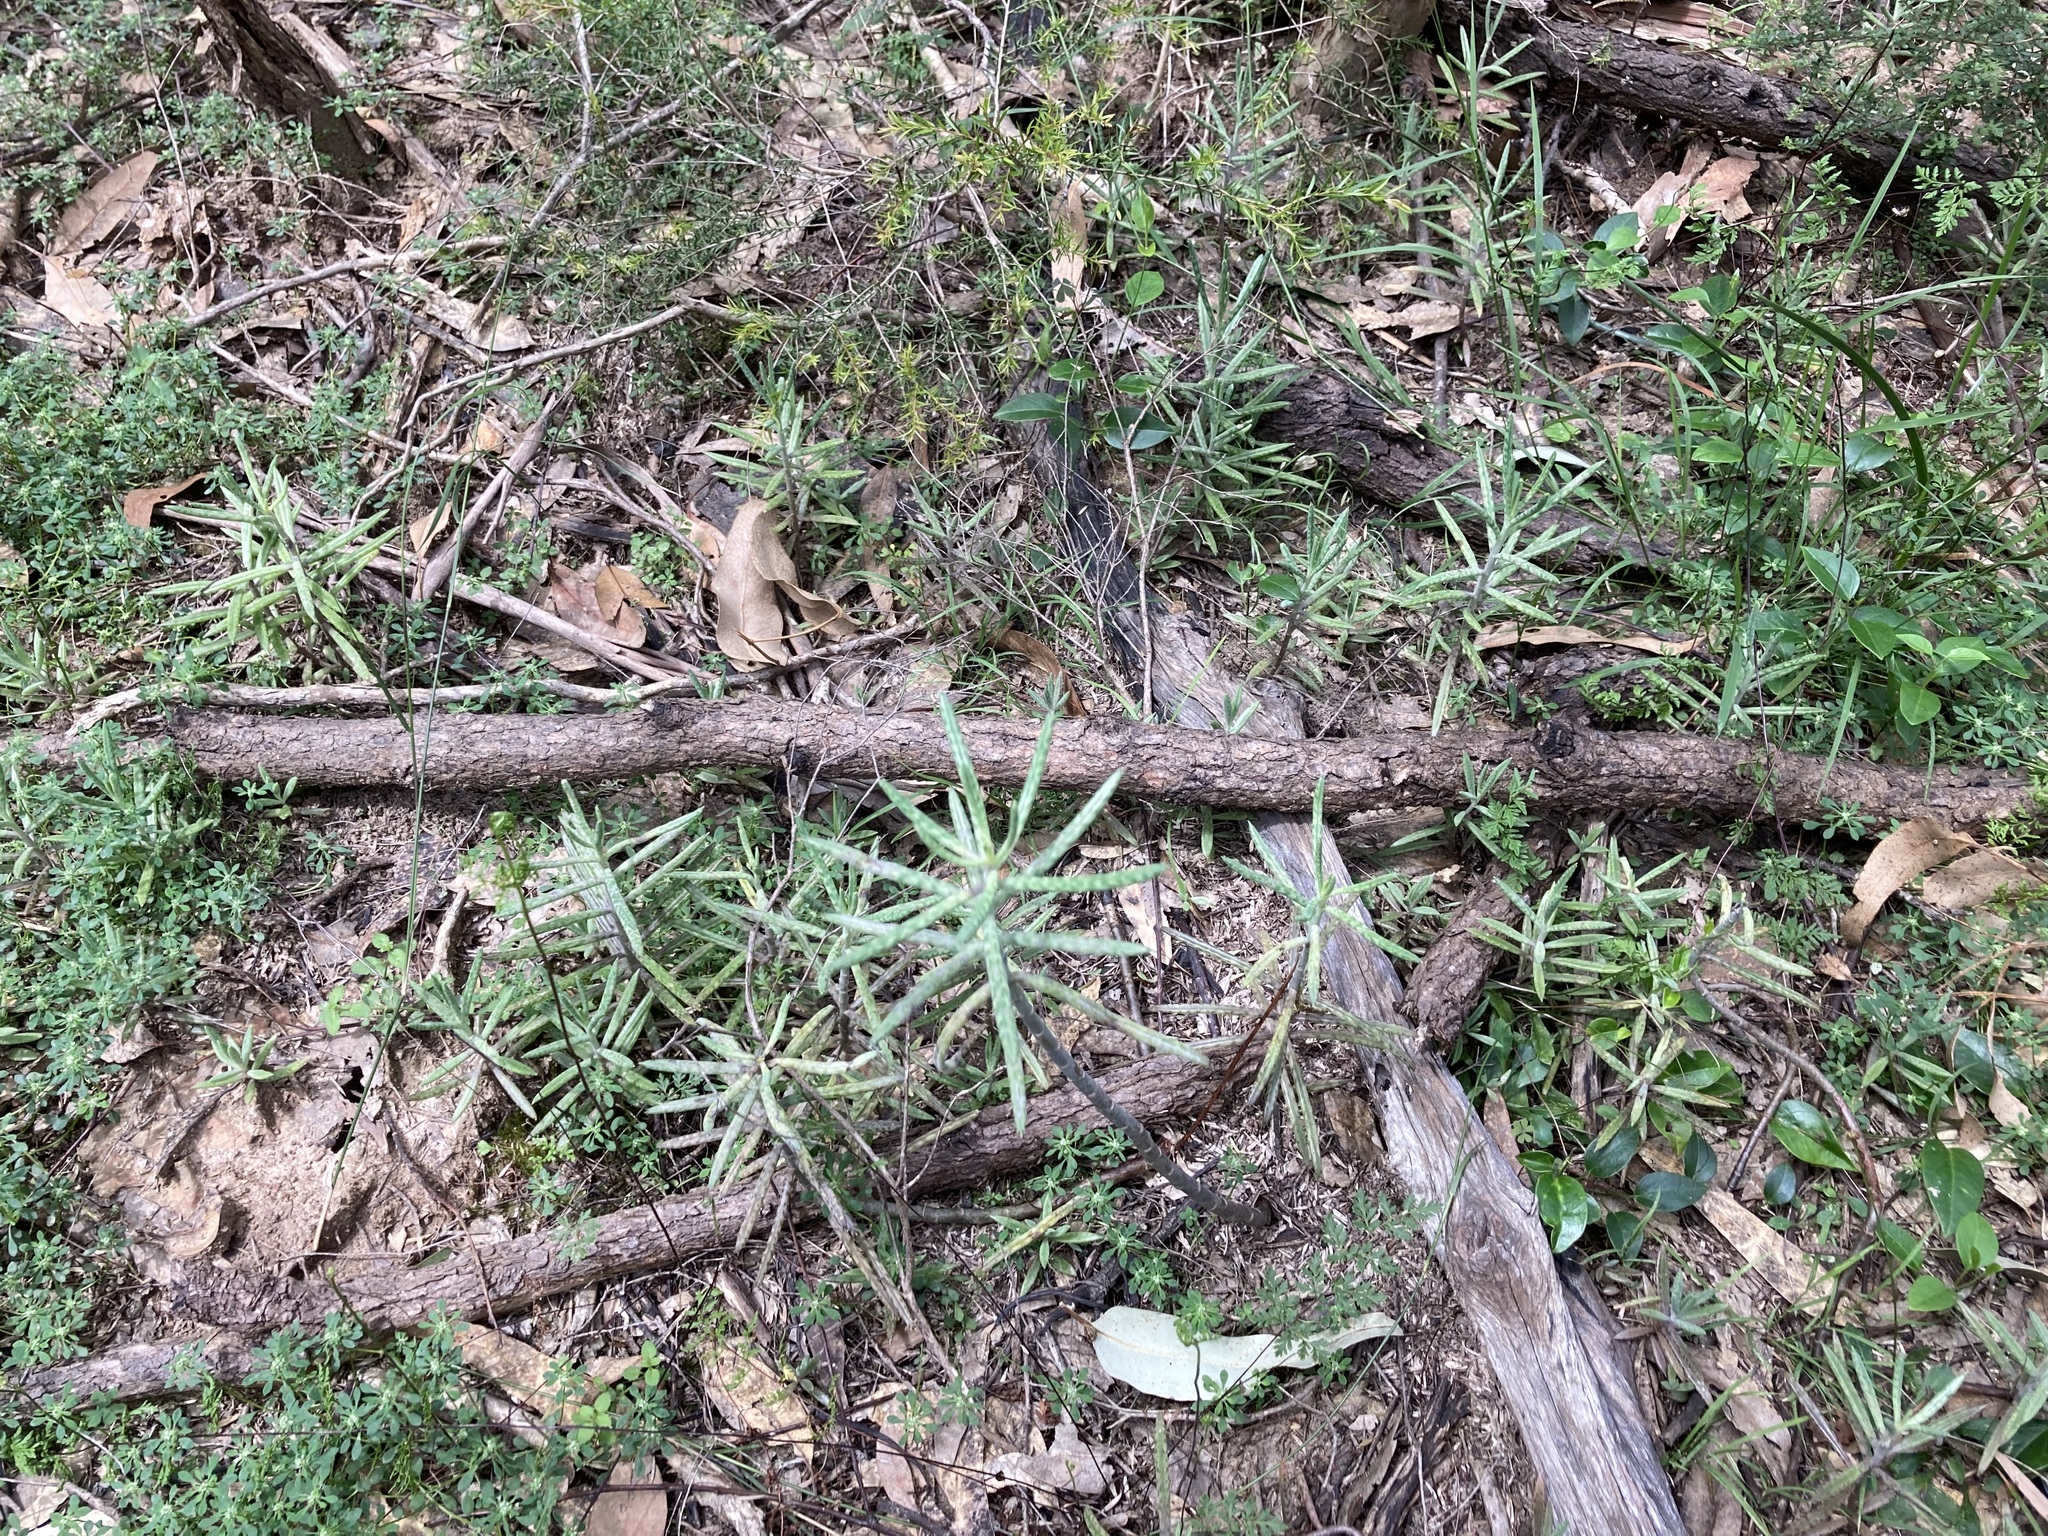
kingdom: Plantae
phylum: Tracheophyta
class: Magnoliopsida
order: Saxifragales
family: Crassulaceae
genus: Kalanchoe
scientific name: Kalanchoe delagoensis
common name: Chandelier plant
